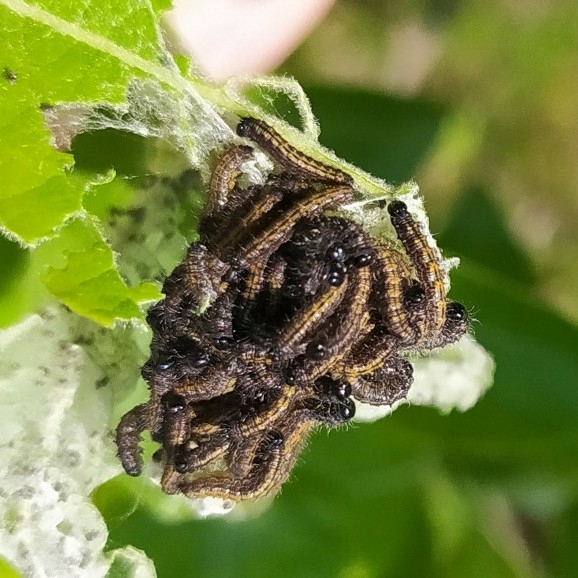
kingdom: Animalia
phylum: Arthropoda
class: Insecta
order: Lepidoptera
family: Nymphalidae
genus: Nymphalis
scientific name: Nymphalis antiopa
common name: Camberwell beauty
